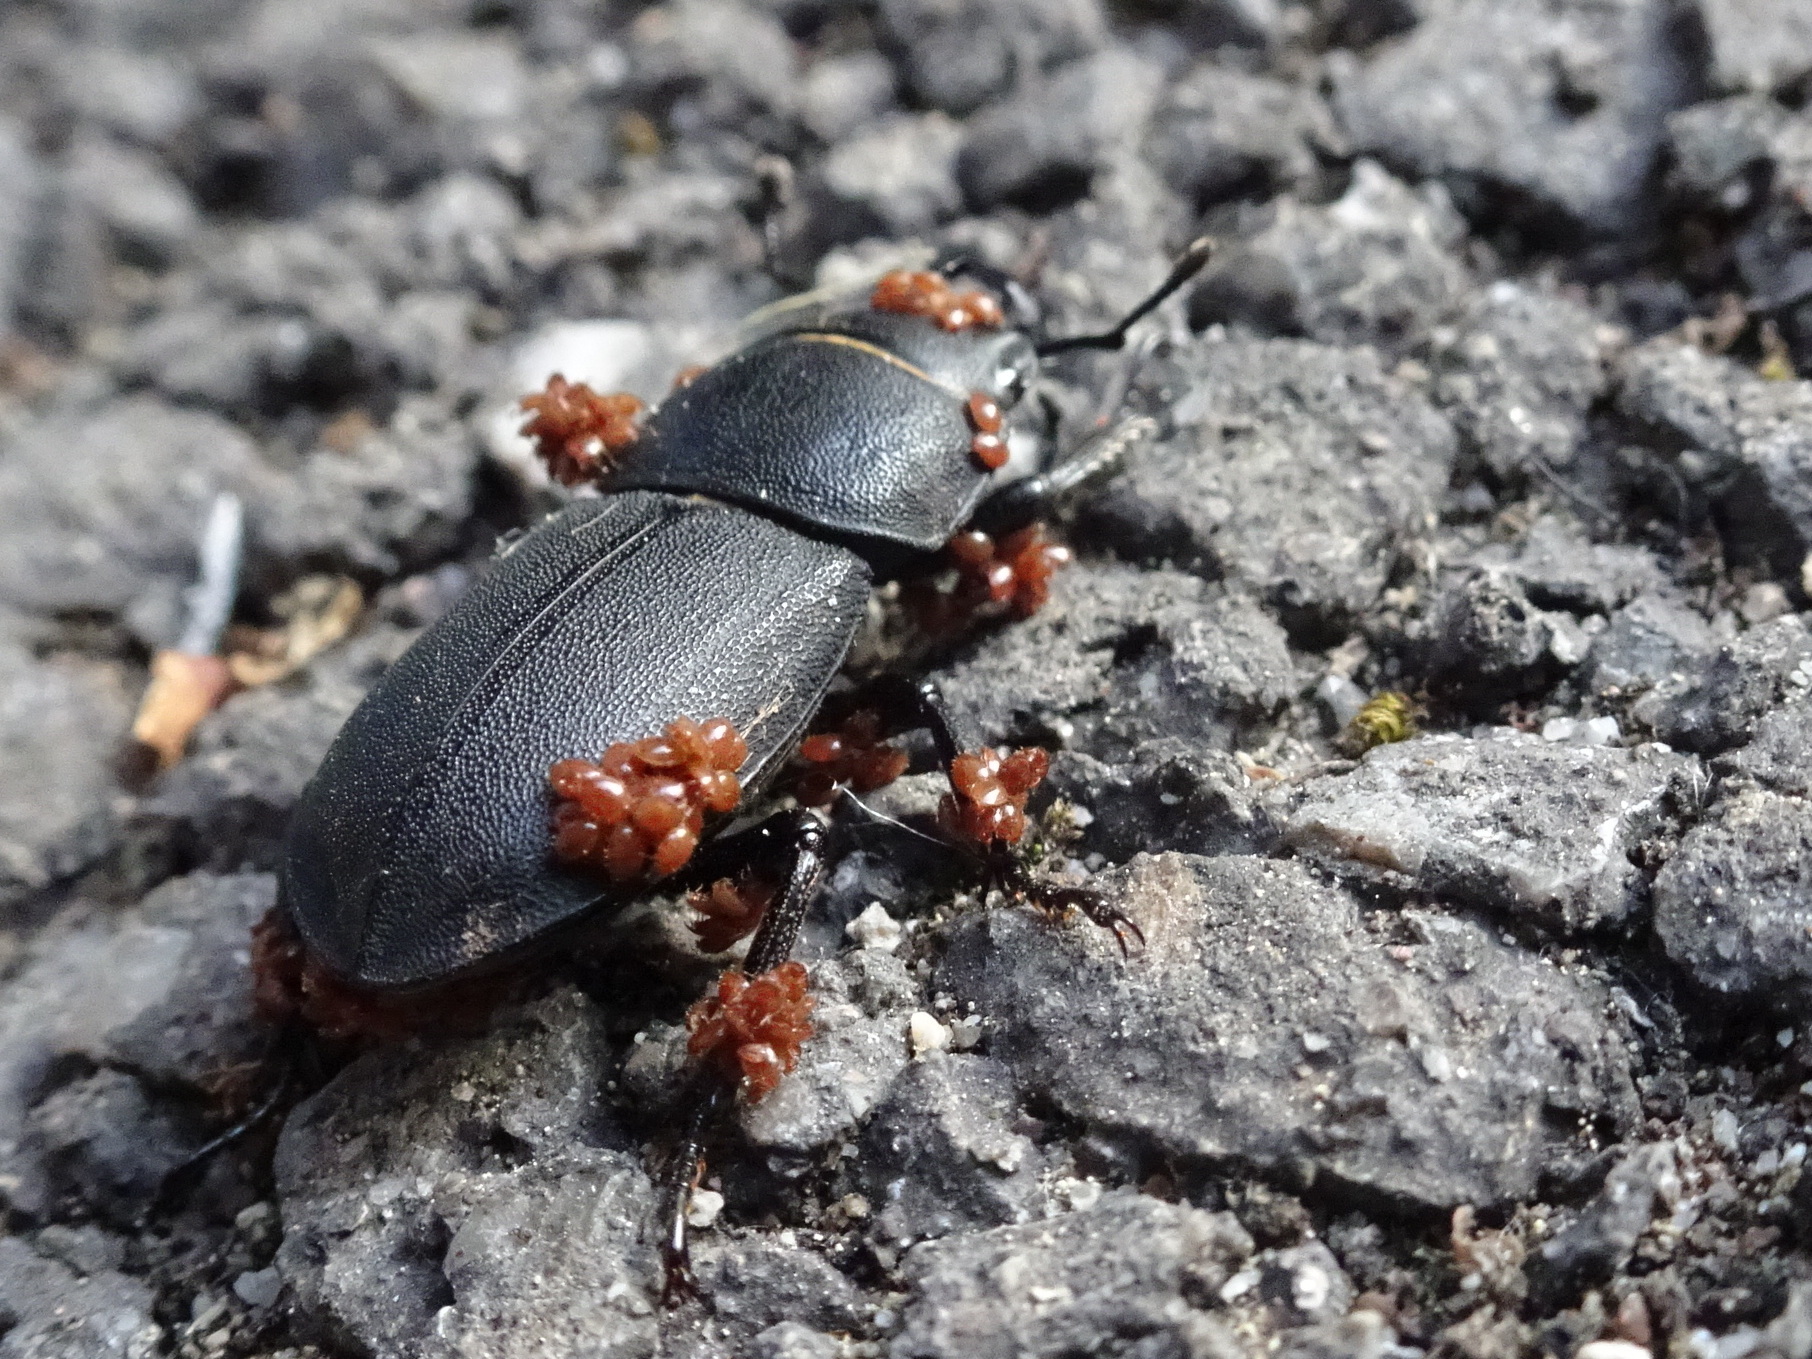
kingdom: Animalia
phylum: Arthropoda
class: Insecta
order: Coleoptera
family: Lucanidae
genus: Dorcus
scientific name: Dorcus parallelipipedus
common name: Lesser stag beetle
